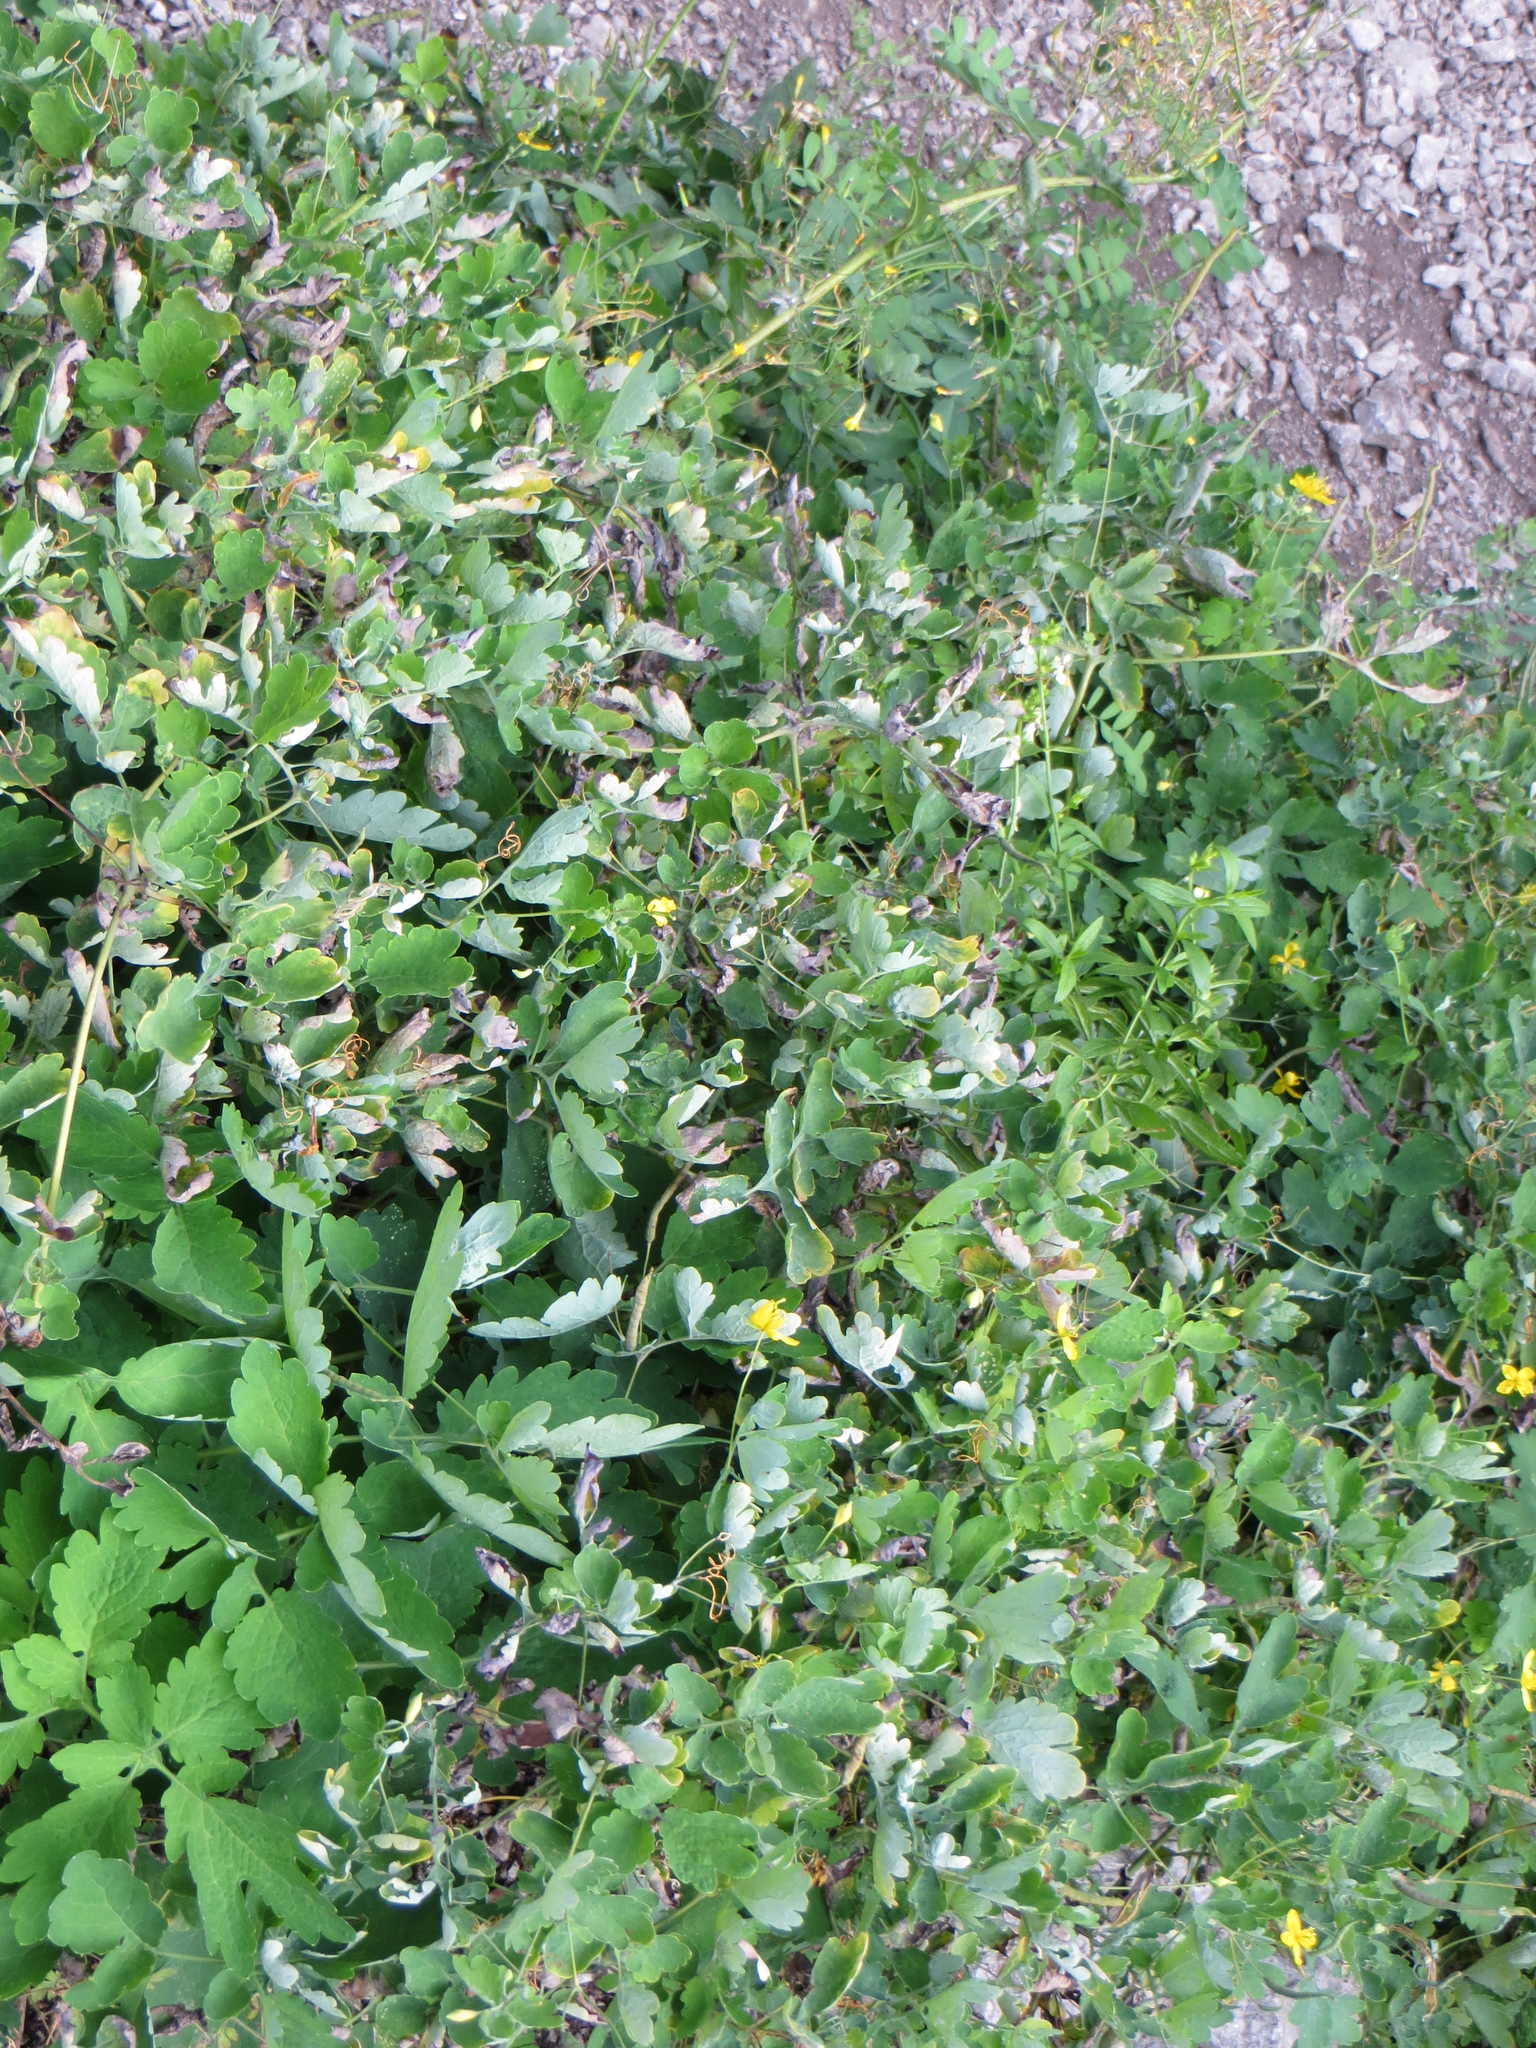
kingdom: Plantae
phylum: Tracheophyta
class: Magnoliopsida
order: Ranunculales
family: Papaveraceae
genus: Chelidonium
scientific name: Chelidonium majus
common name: Greater celandine
